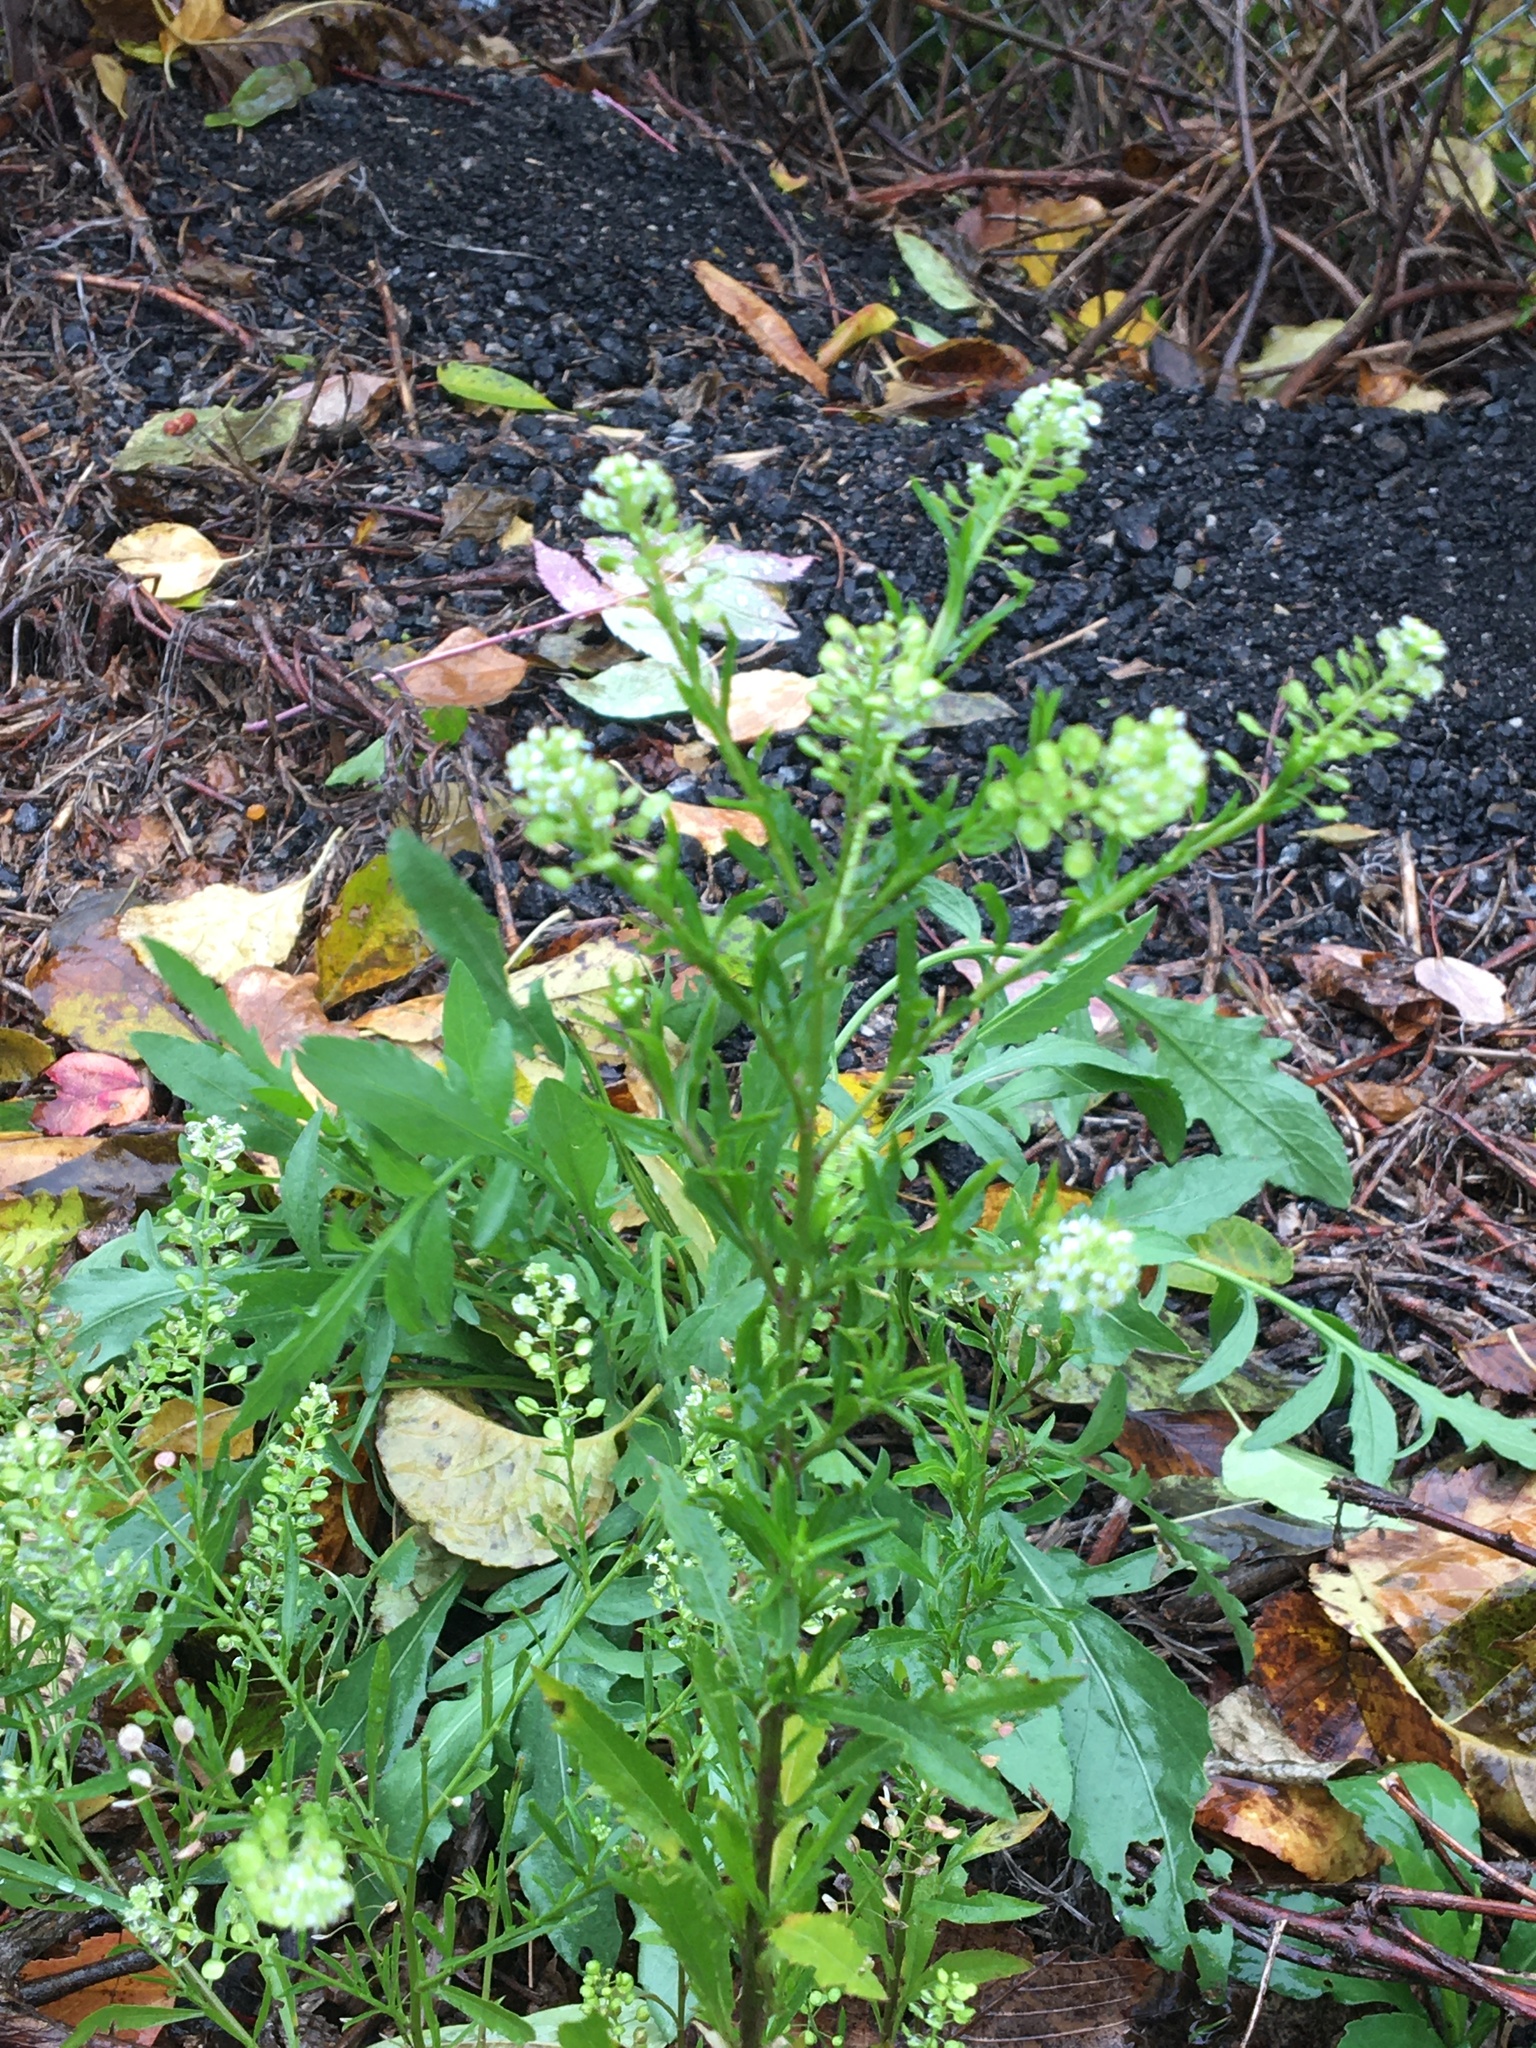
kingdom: Plantae
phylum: Tracheophyta
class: Magnoliopsida
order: Brassicales
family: Brassicaceae
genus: Lepidium
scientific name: Lepidium virginicum
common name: Least pepperwort
